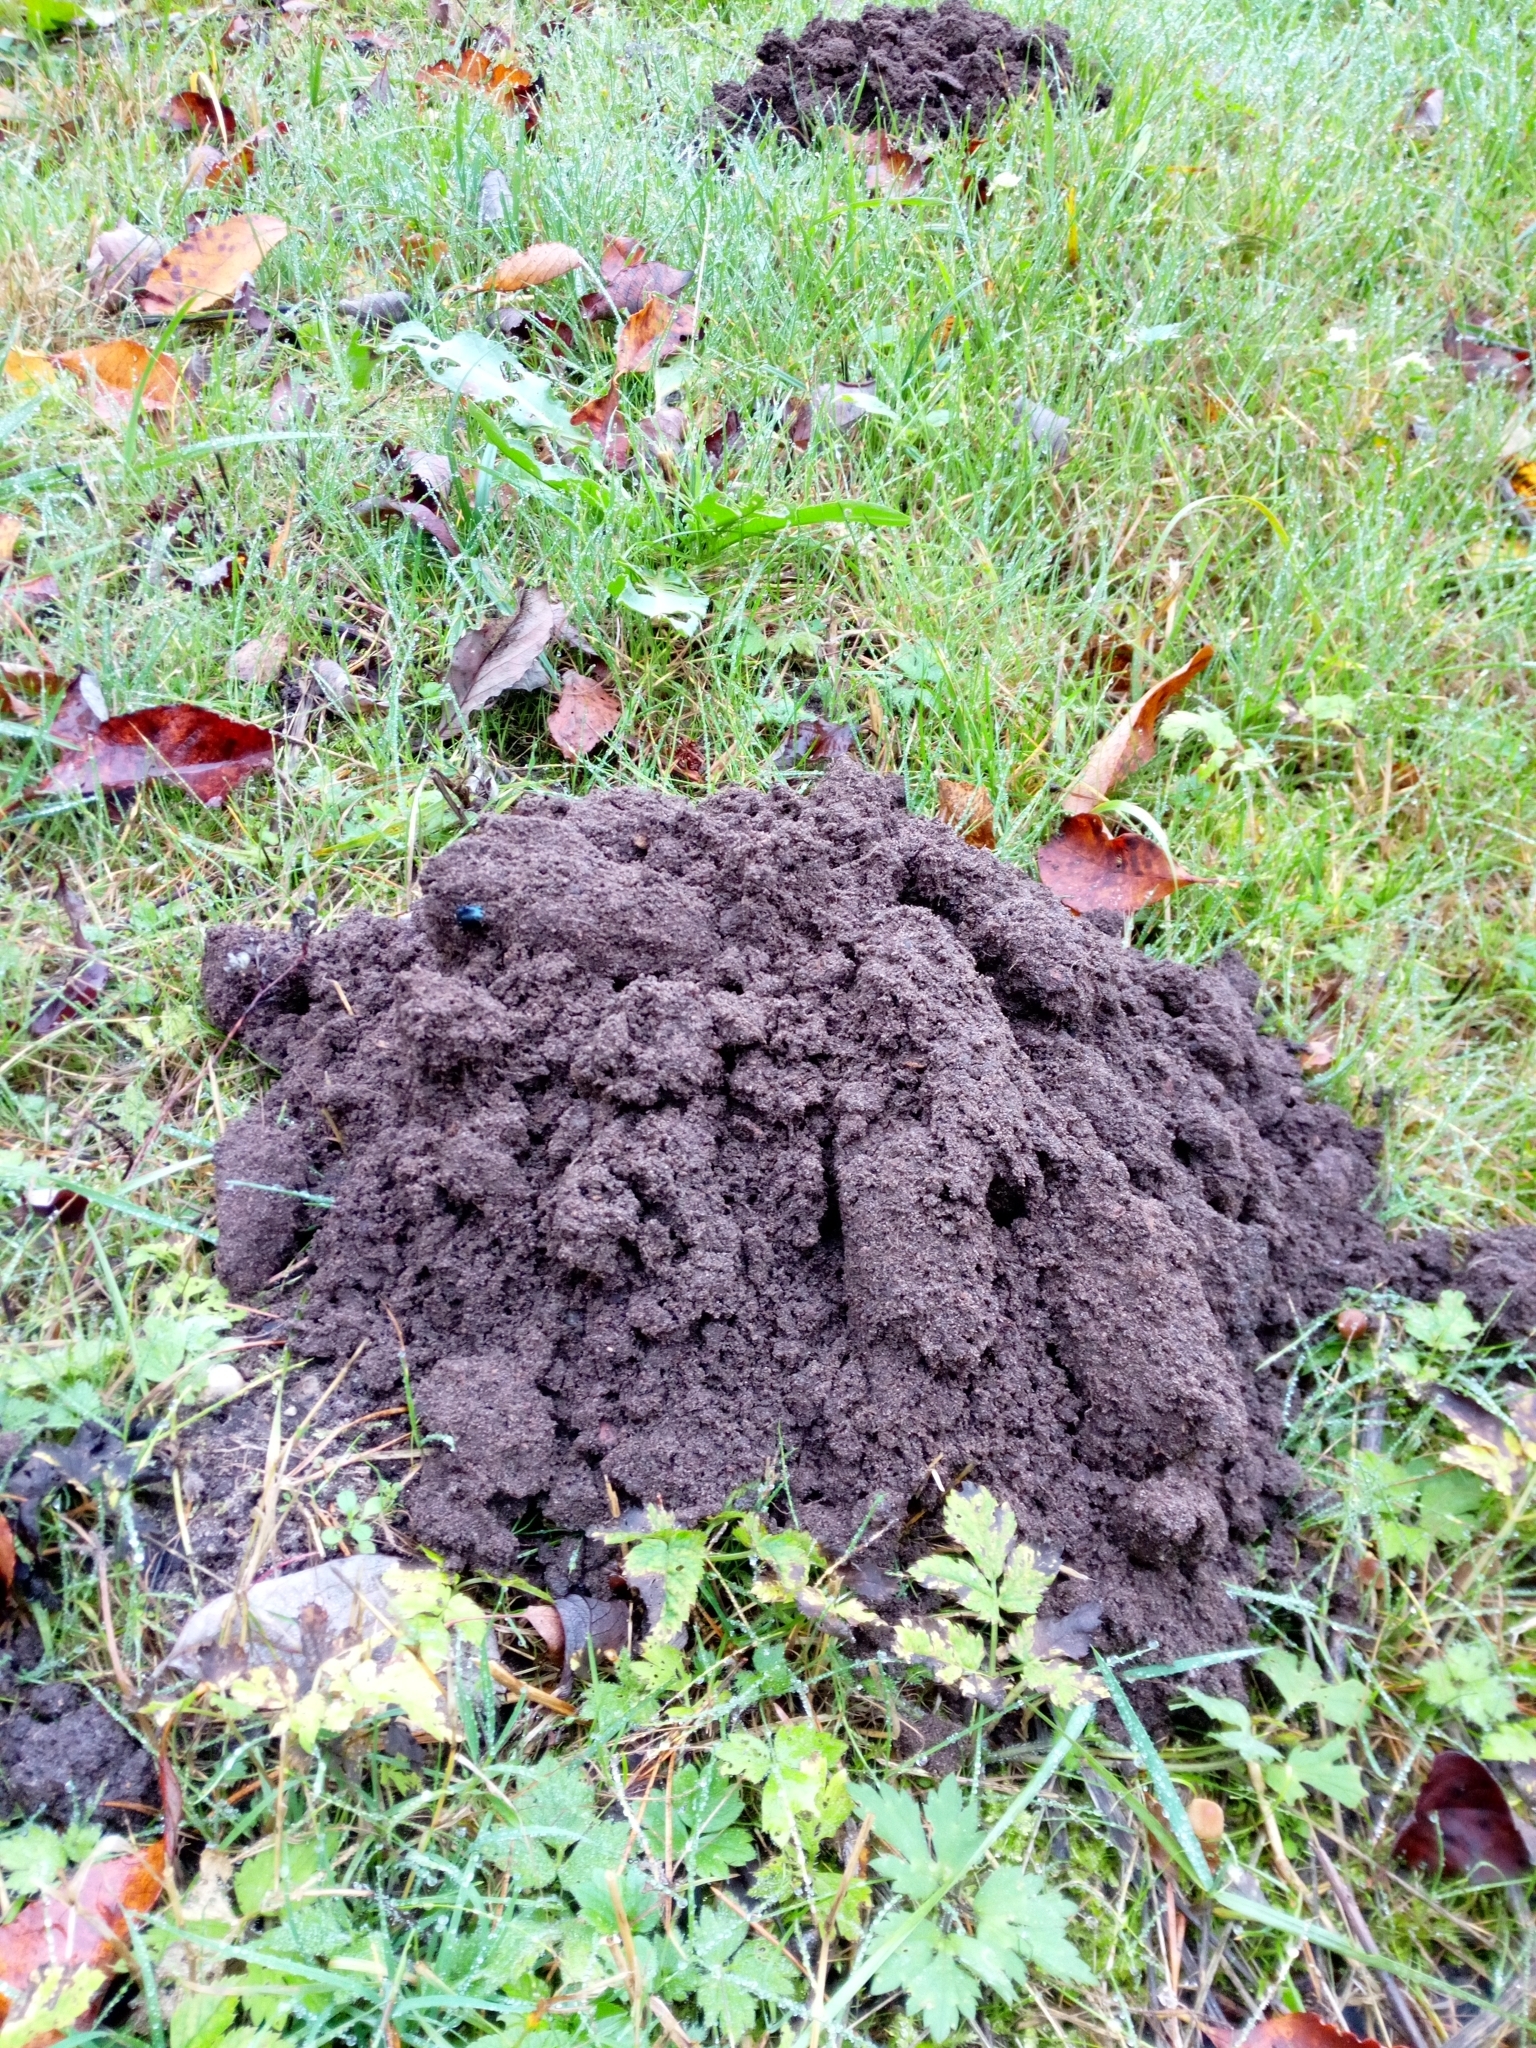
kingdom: Animalia
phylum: Chordata
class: Mammalia
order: Soricomorpha
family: Talpidae
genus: Talpa
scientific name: Talpa europaea
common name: European mole
